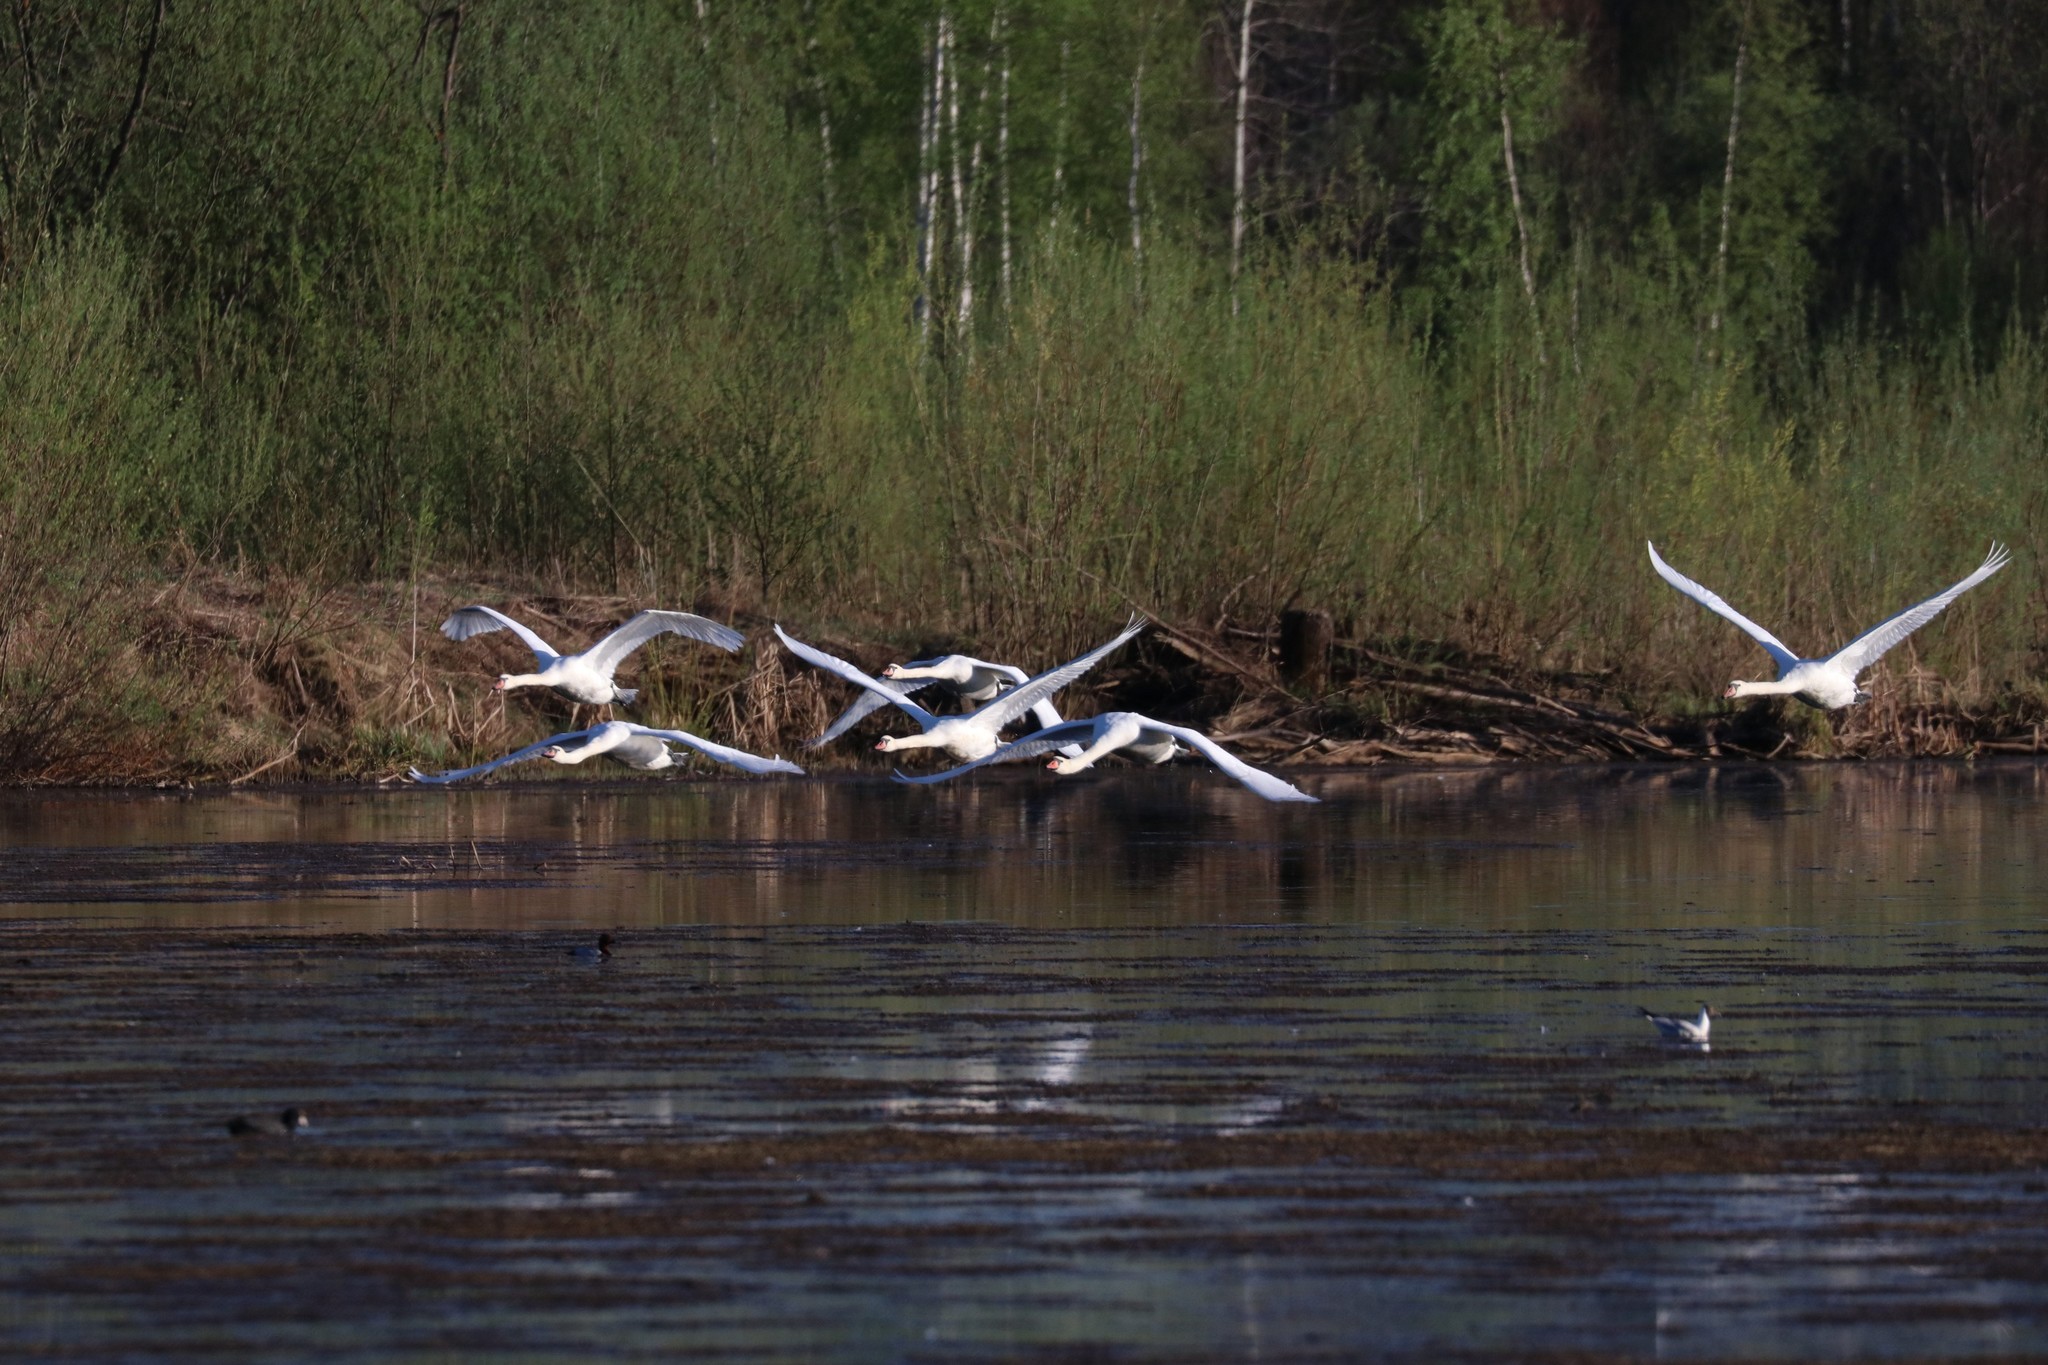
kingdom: Animalia
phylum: Chordata
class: Aves
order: Anseriformes
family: Anatidae
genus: Cygnus
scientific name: Cygnus olor
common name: Mute swan
